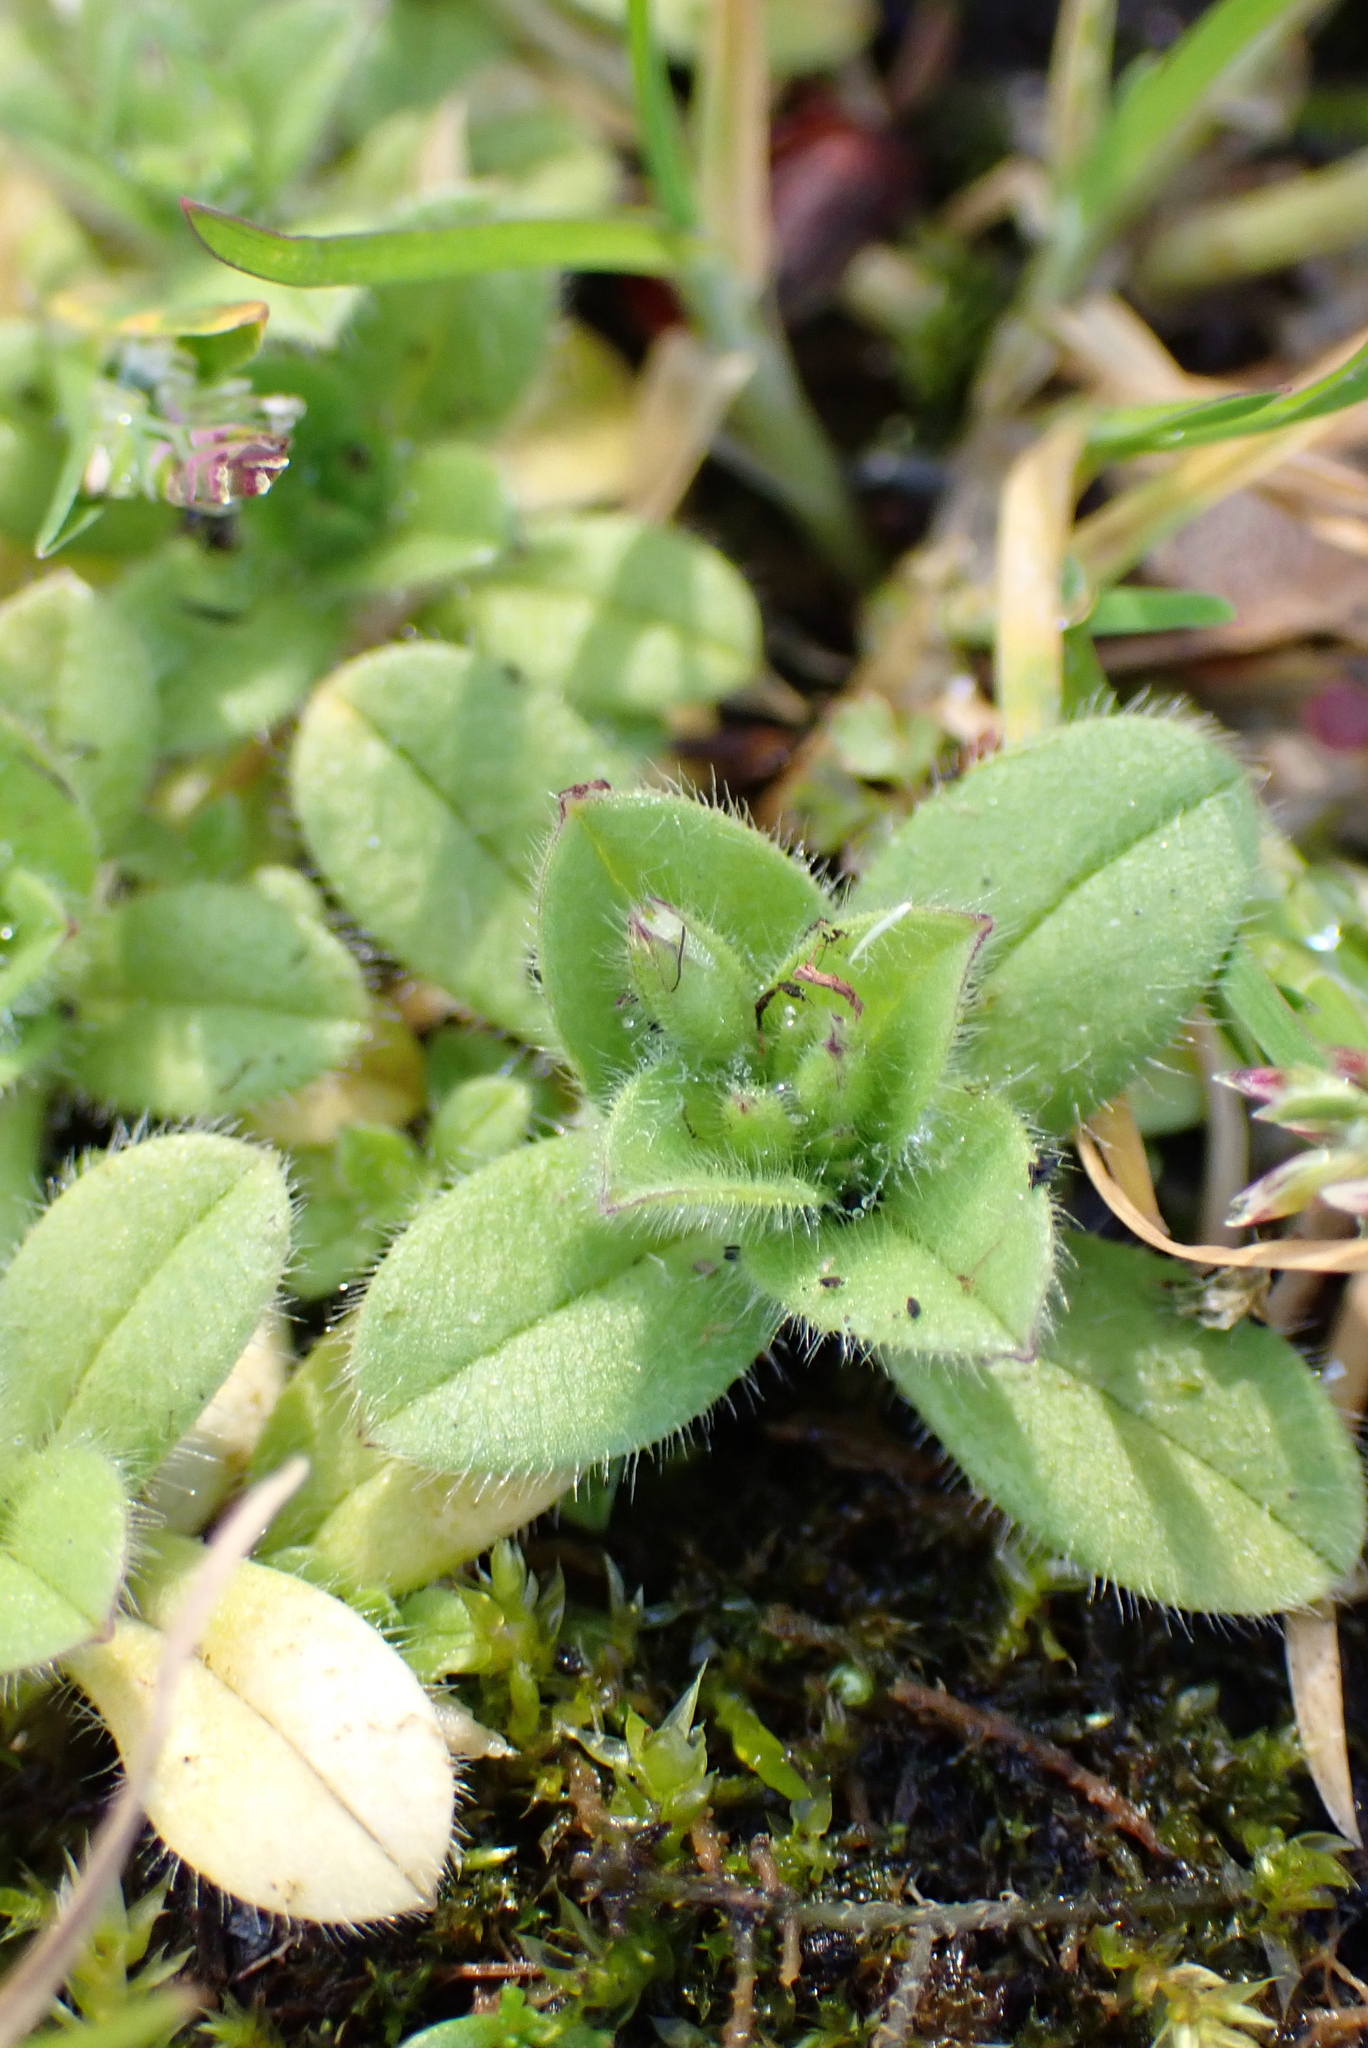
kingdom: Plantae
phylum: Tracheophyta
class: Magnoliopsida
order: Caryophyllales
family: Caryophyllaceae
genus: Cerastium
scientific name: Cerastium glomeratum
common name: Sticky chickweed
